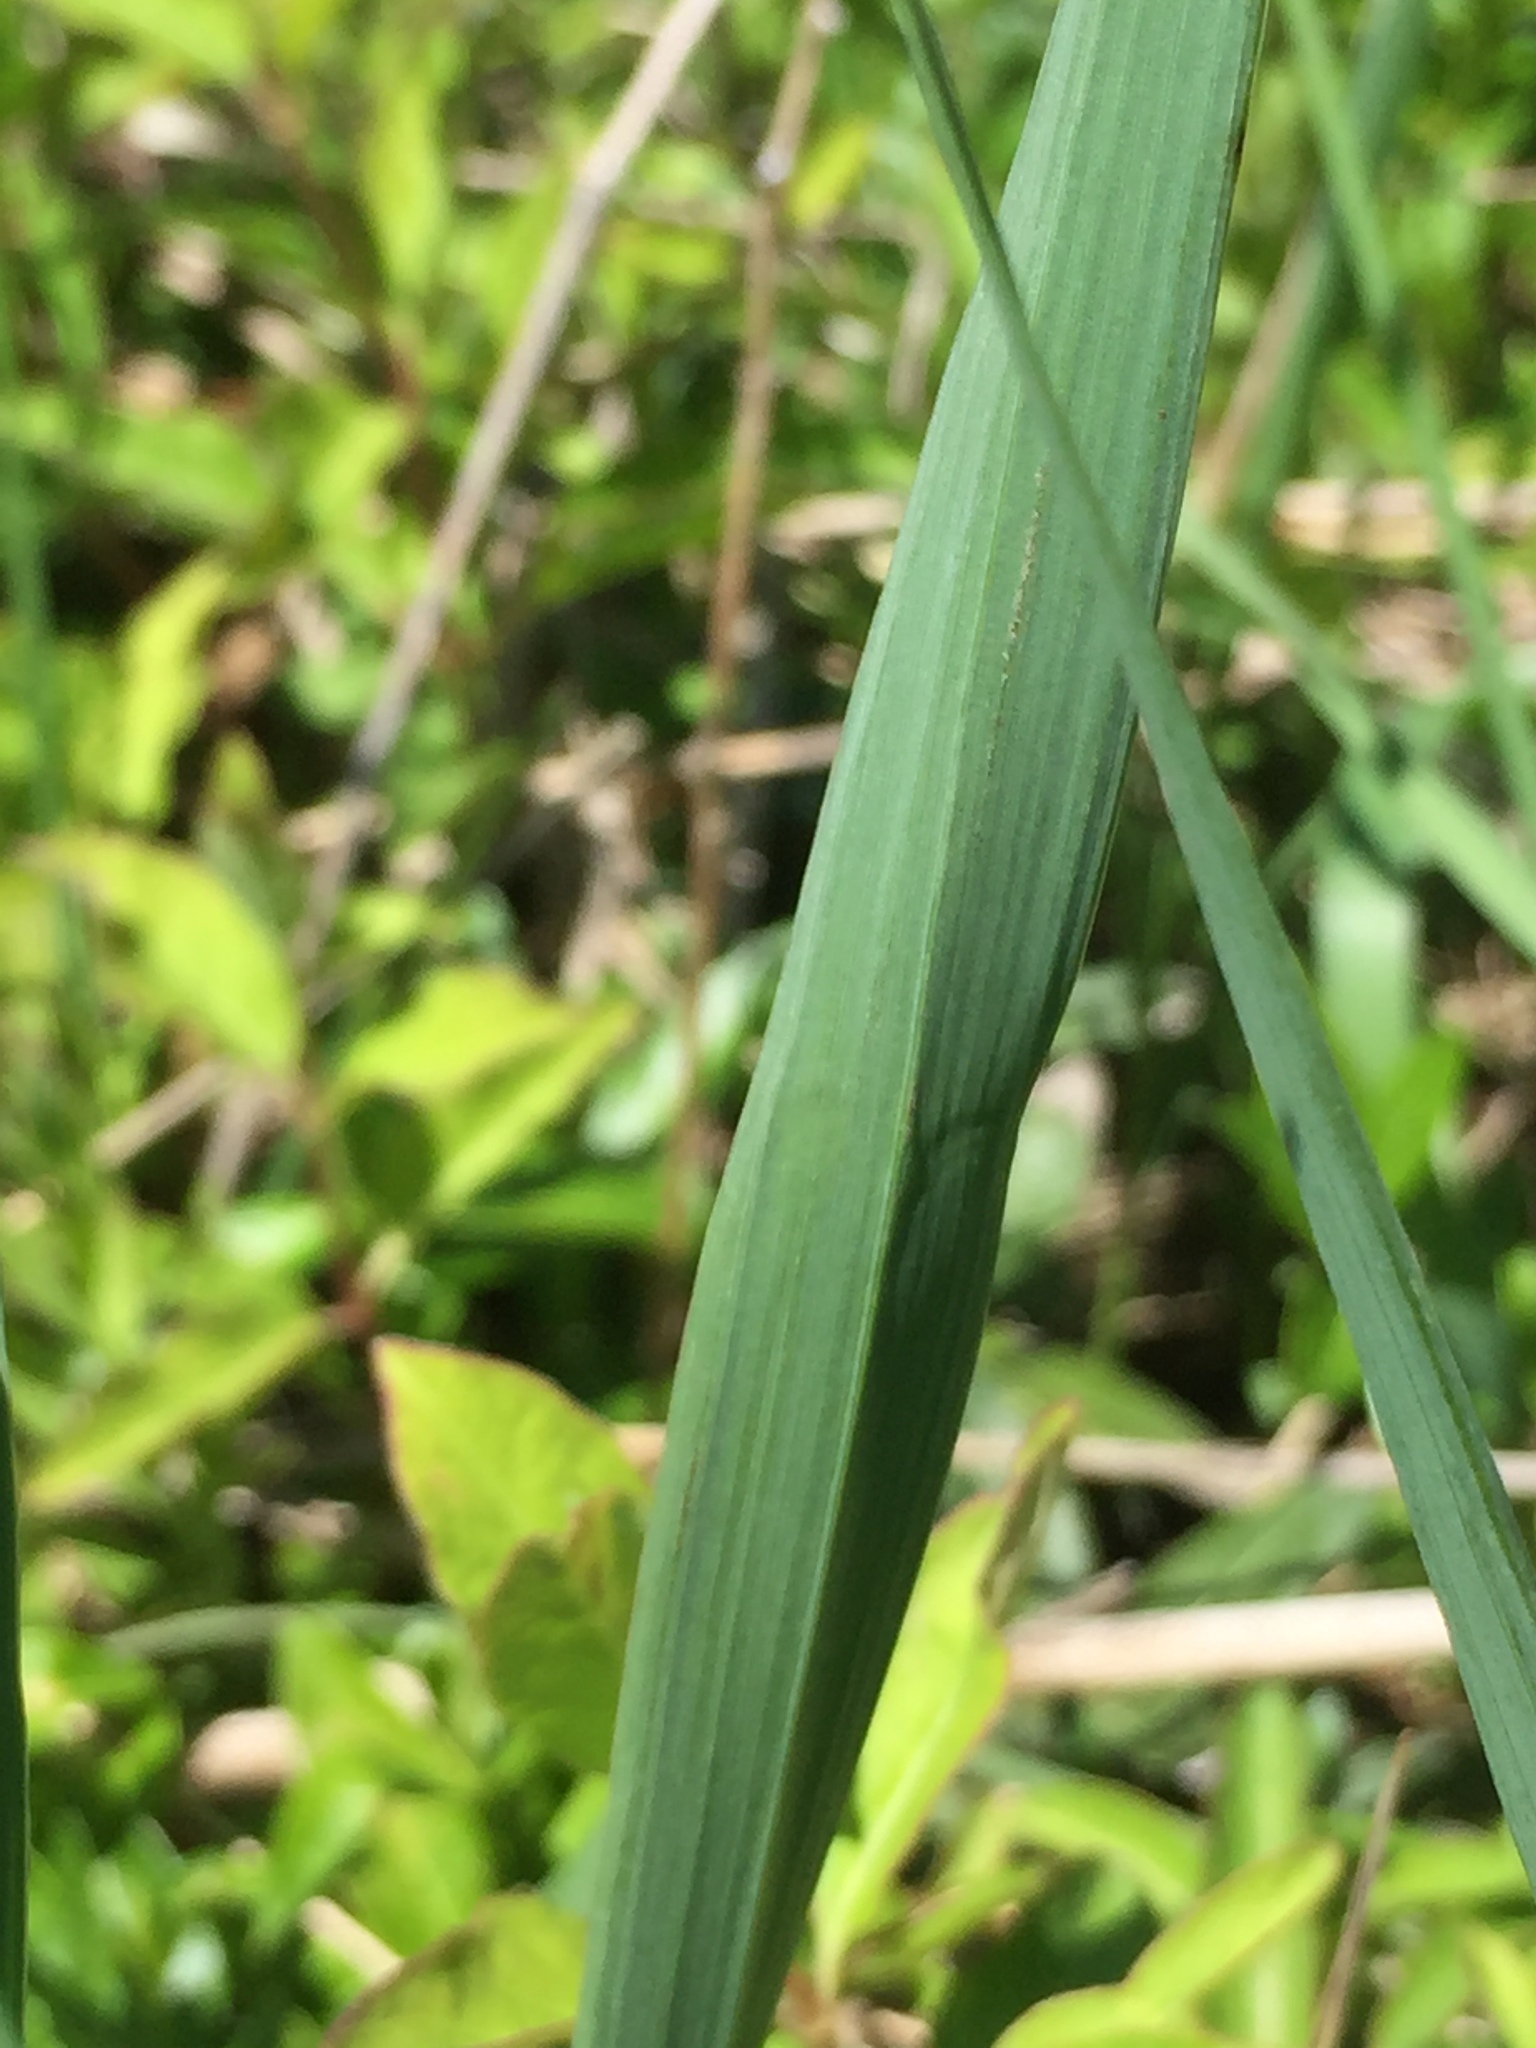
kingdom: Plantae
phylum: Tracheophyta
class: Liliopsida
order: Poales
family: Poaceae
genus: Bromus
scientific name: Bromus inermis
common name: Smooth brome
